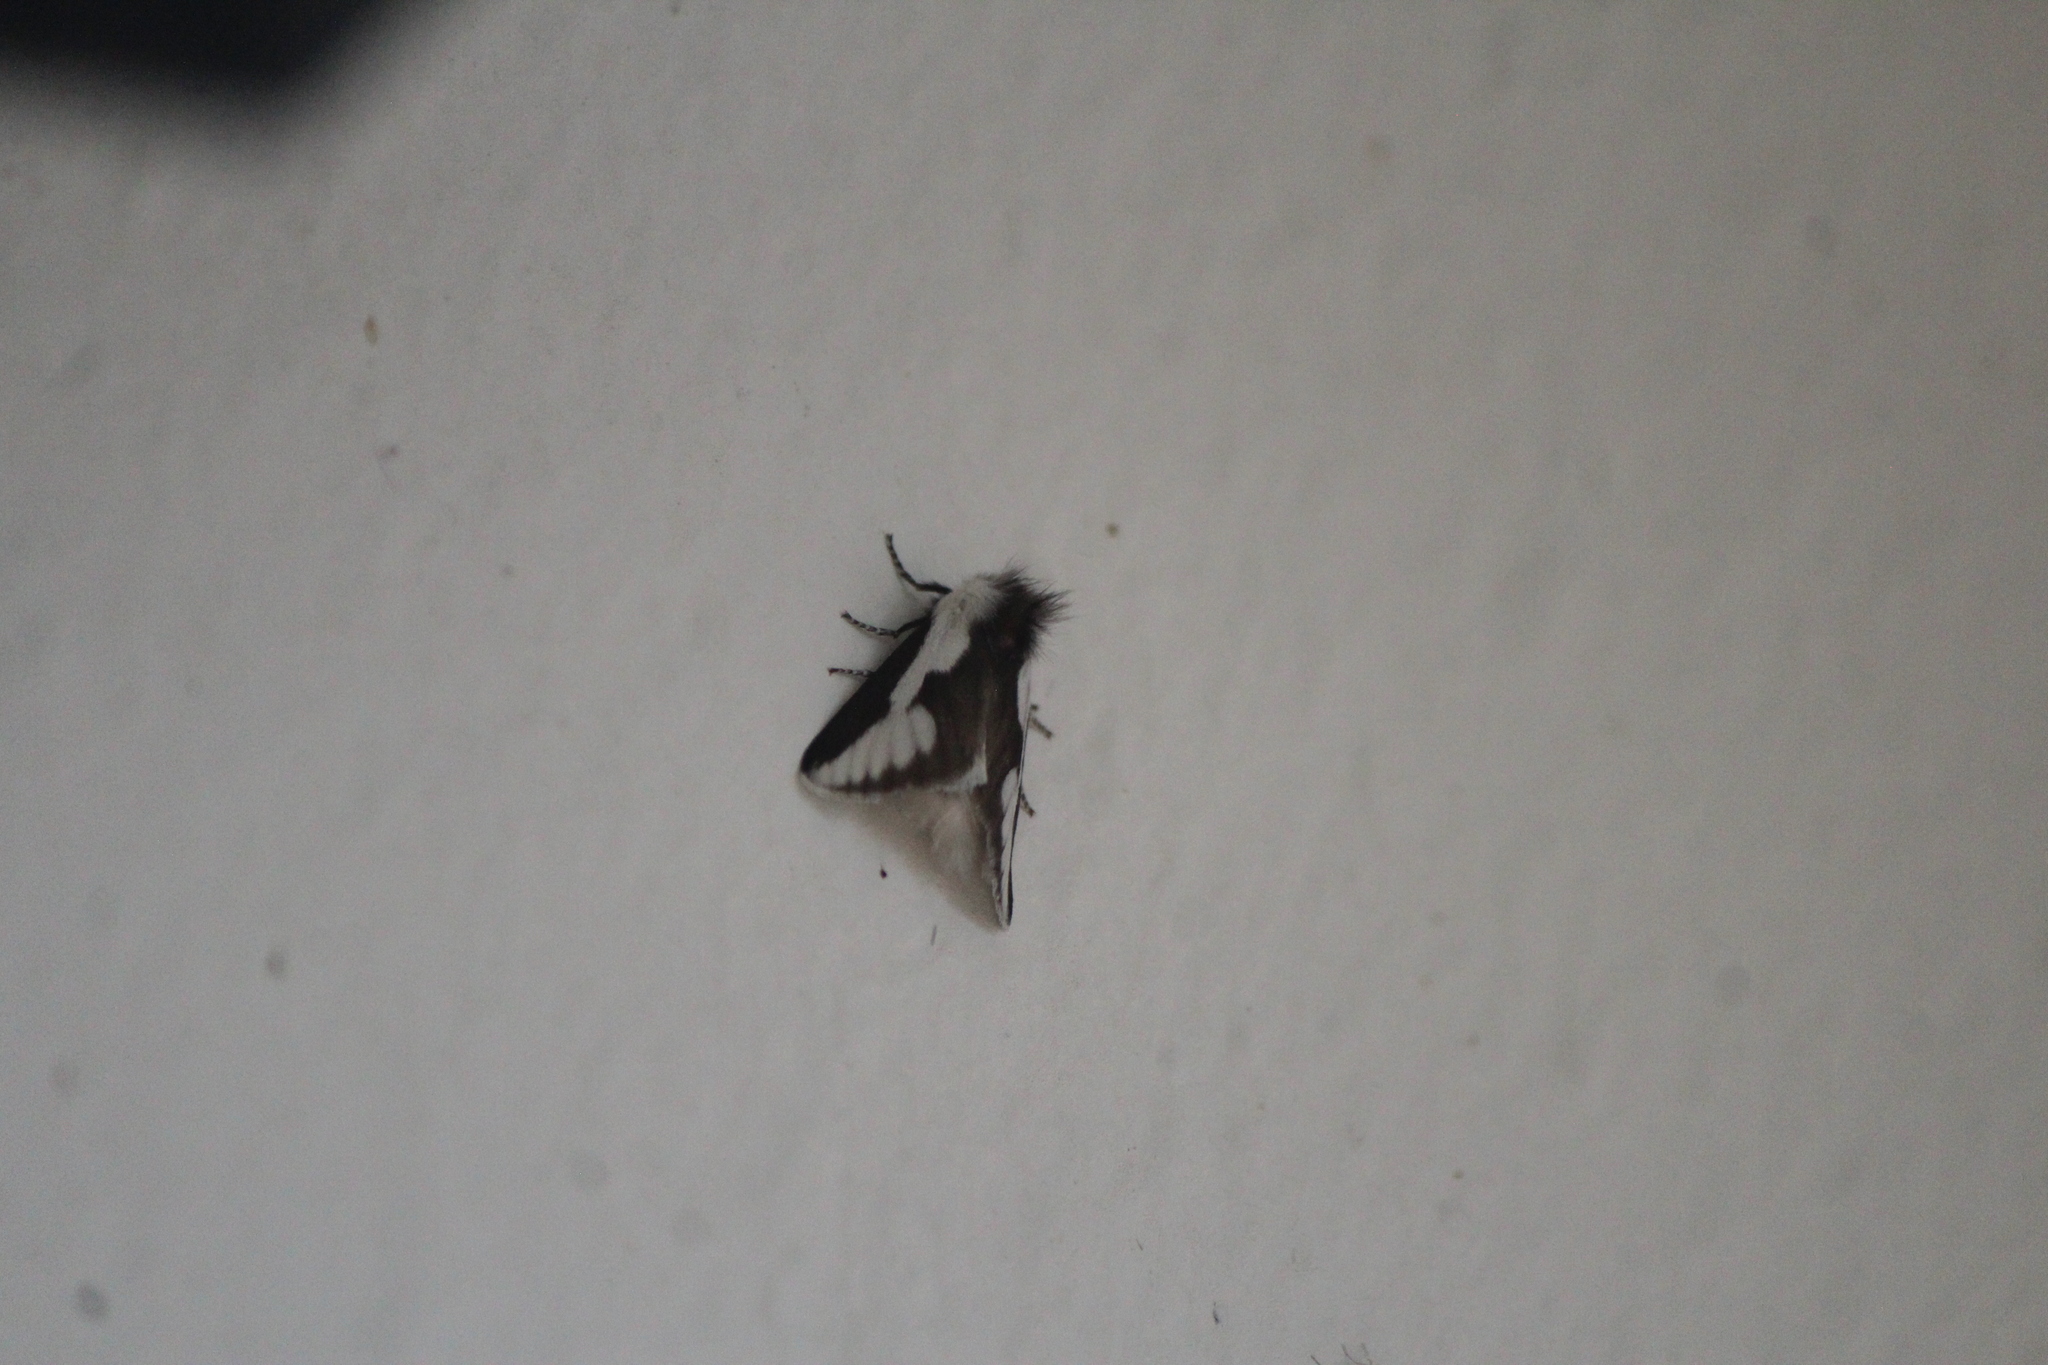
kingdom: Animalia
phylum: Arthropoda
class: Insecta
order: Lepidoptera
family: Megalopygidae
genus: Norape
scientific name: Norape tener
